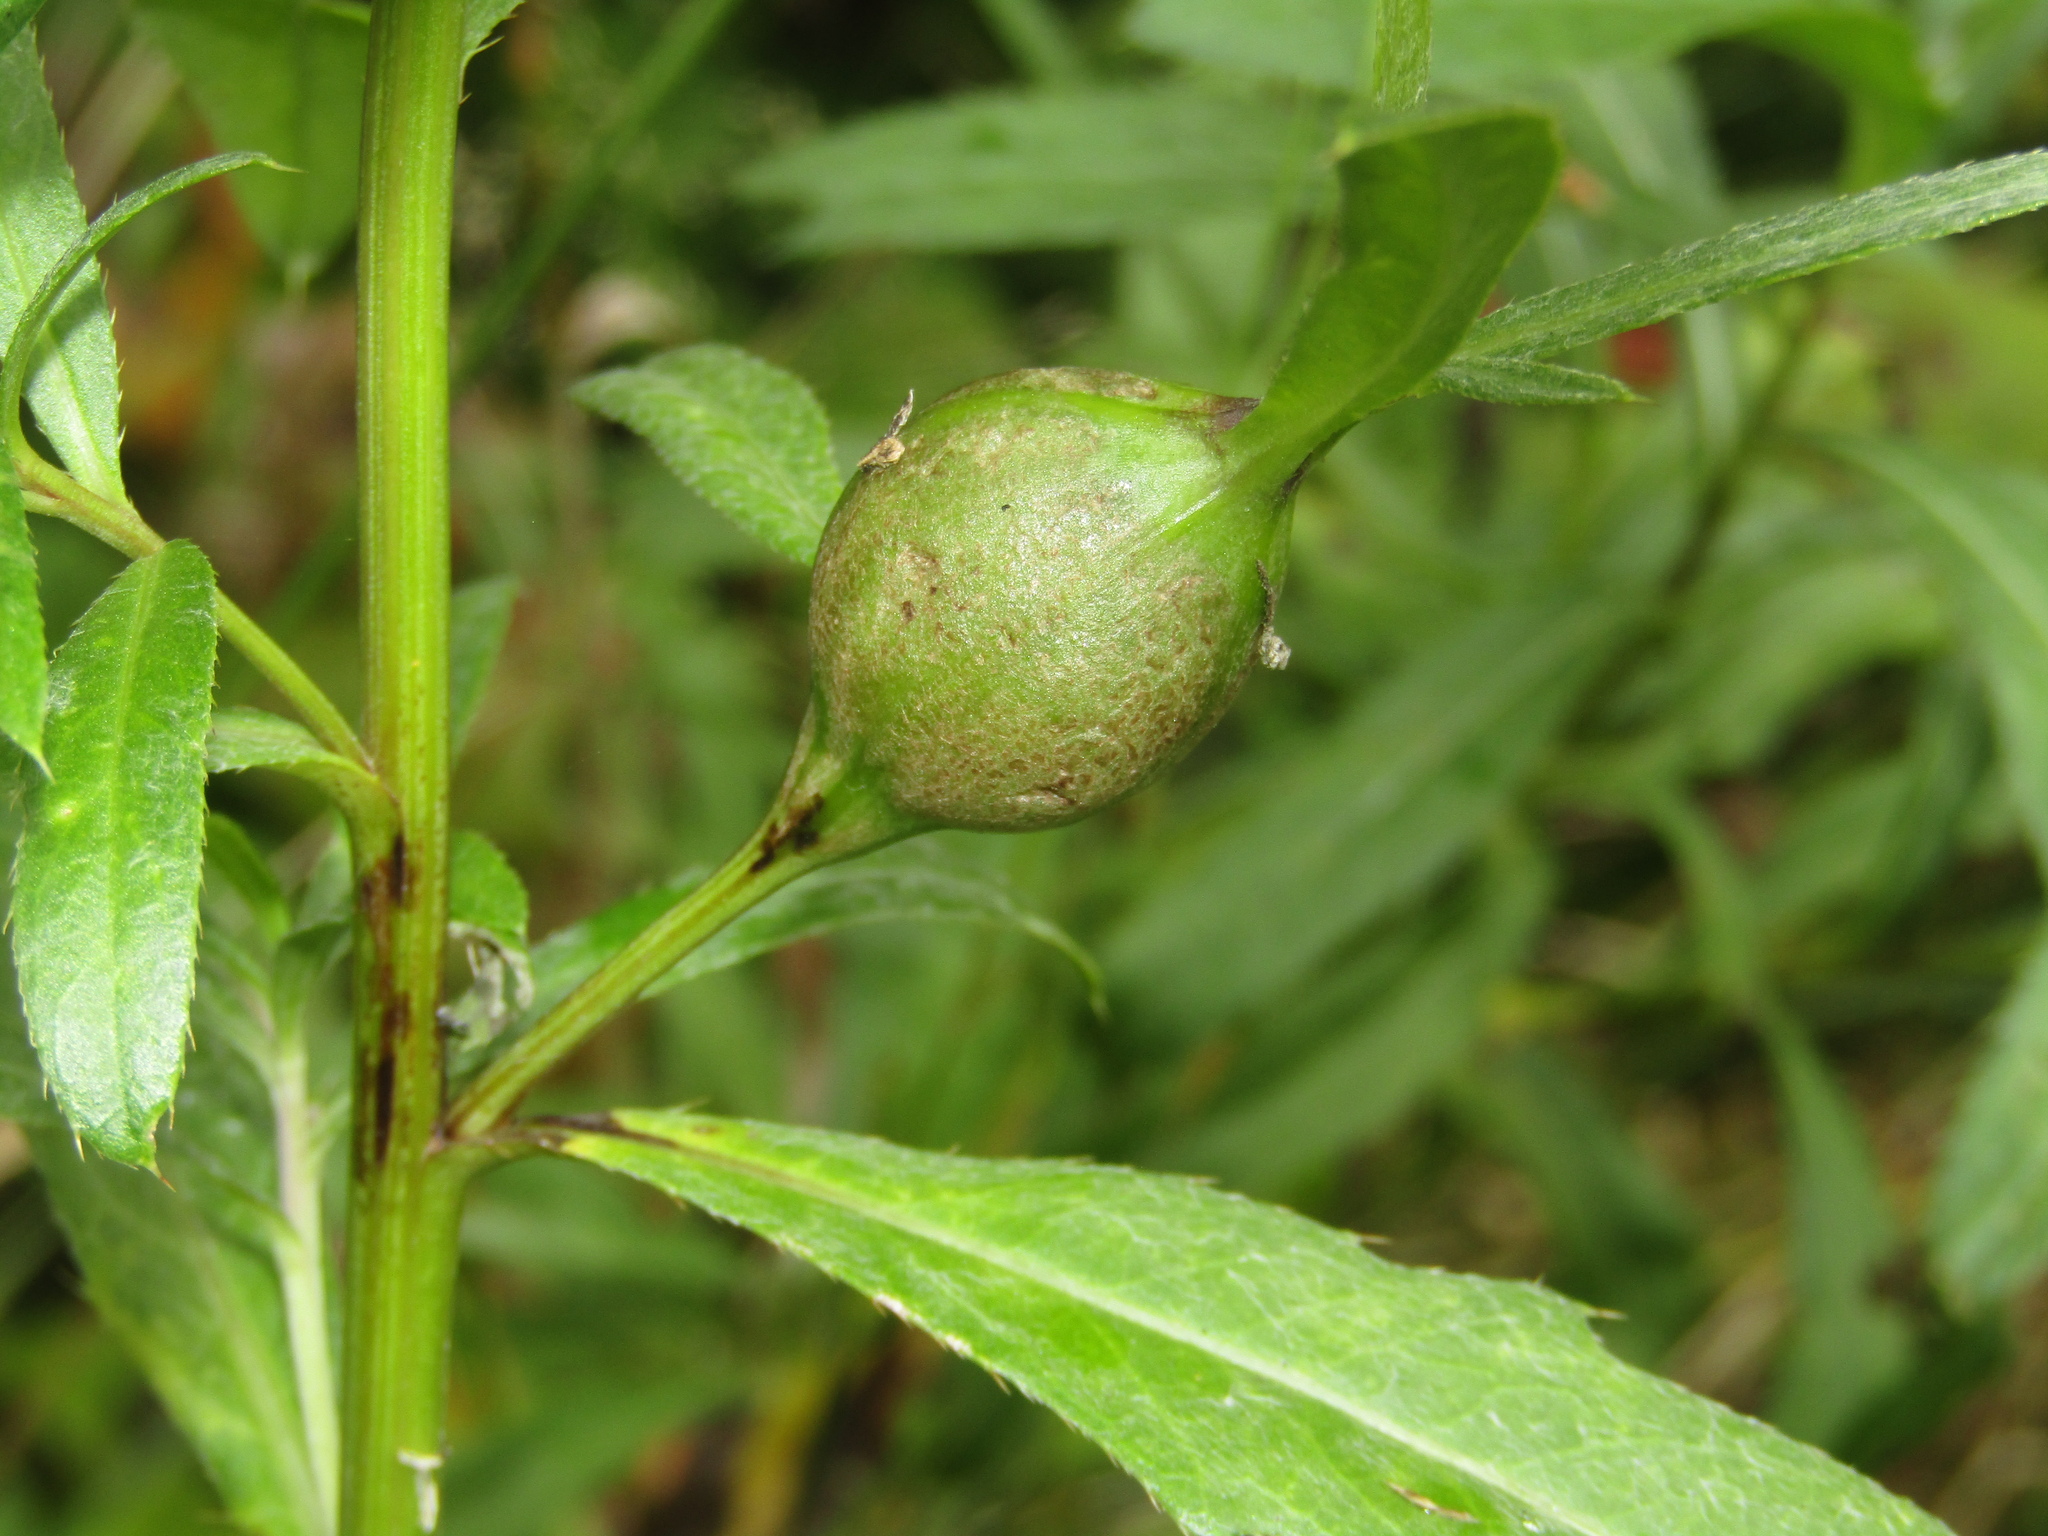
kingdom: Animalia
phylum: Arthropoda
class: Insecta
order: Diptera
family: Tephritidae
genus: Urophora
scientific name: Urophora cardui
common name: Fruit fly
